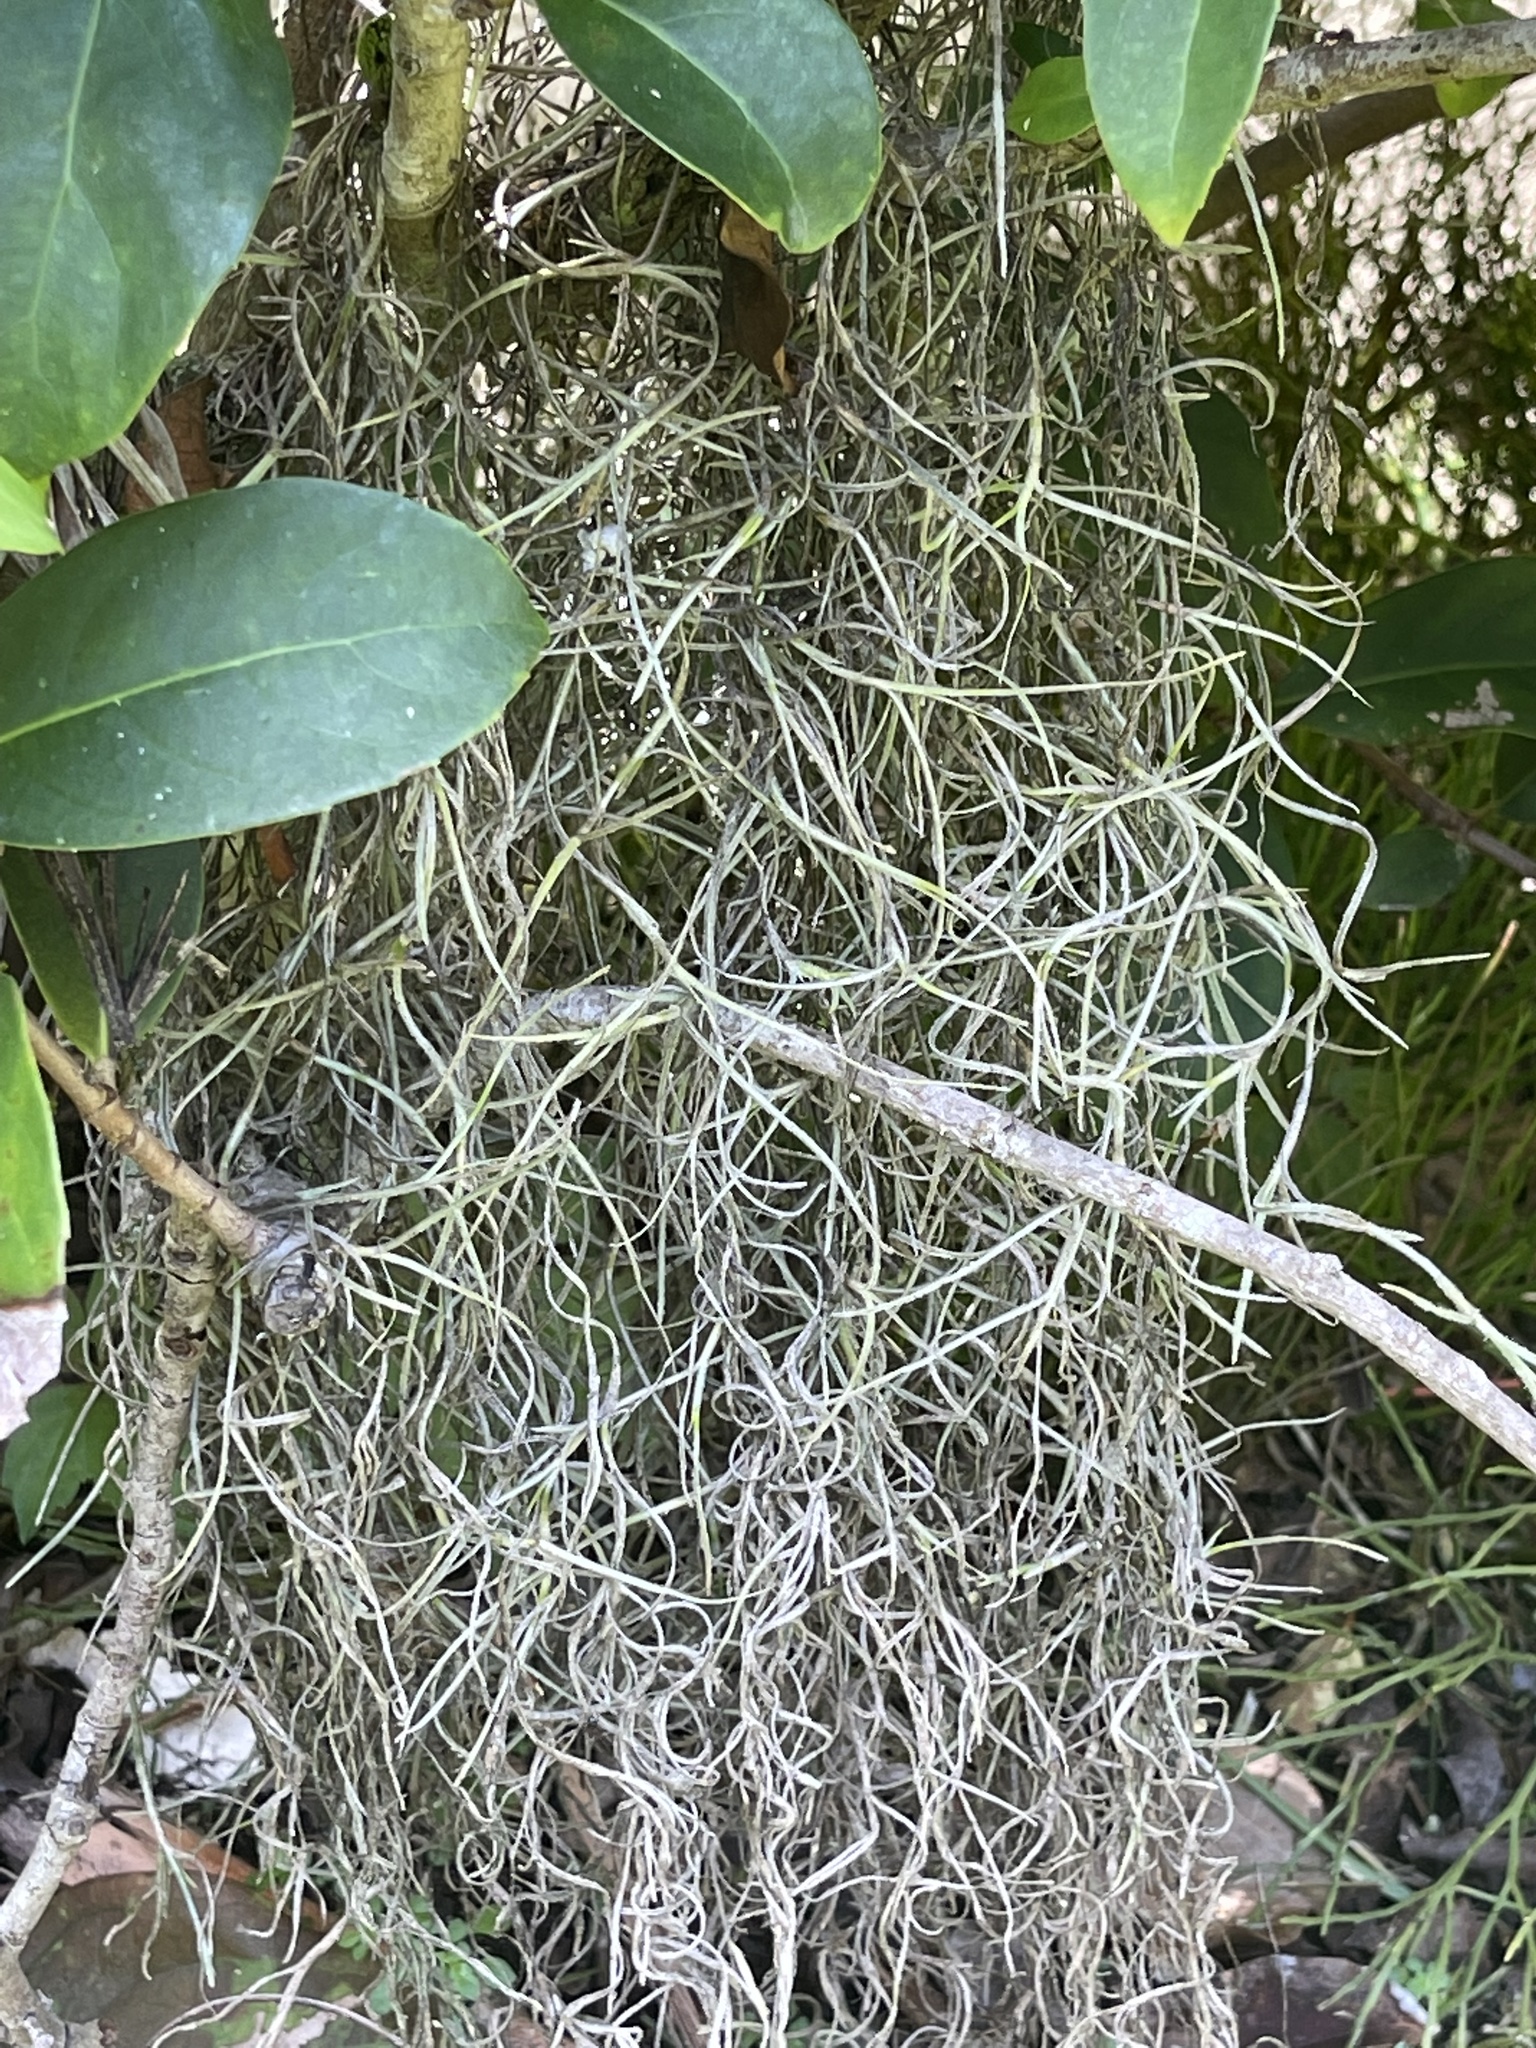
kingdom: Plantae
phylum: Tracheophyta
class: Liliopsida
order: Poales
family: Bromeliaceae
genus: Tillandsia
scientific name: Tillandsia usneoides
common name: Spanish moss
